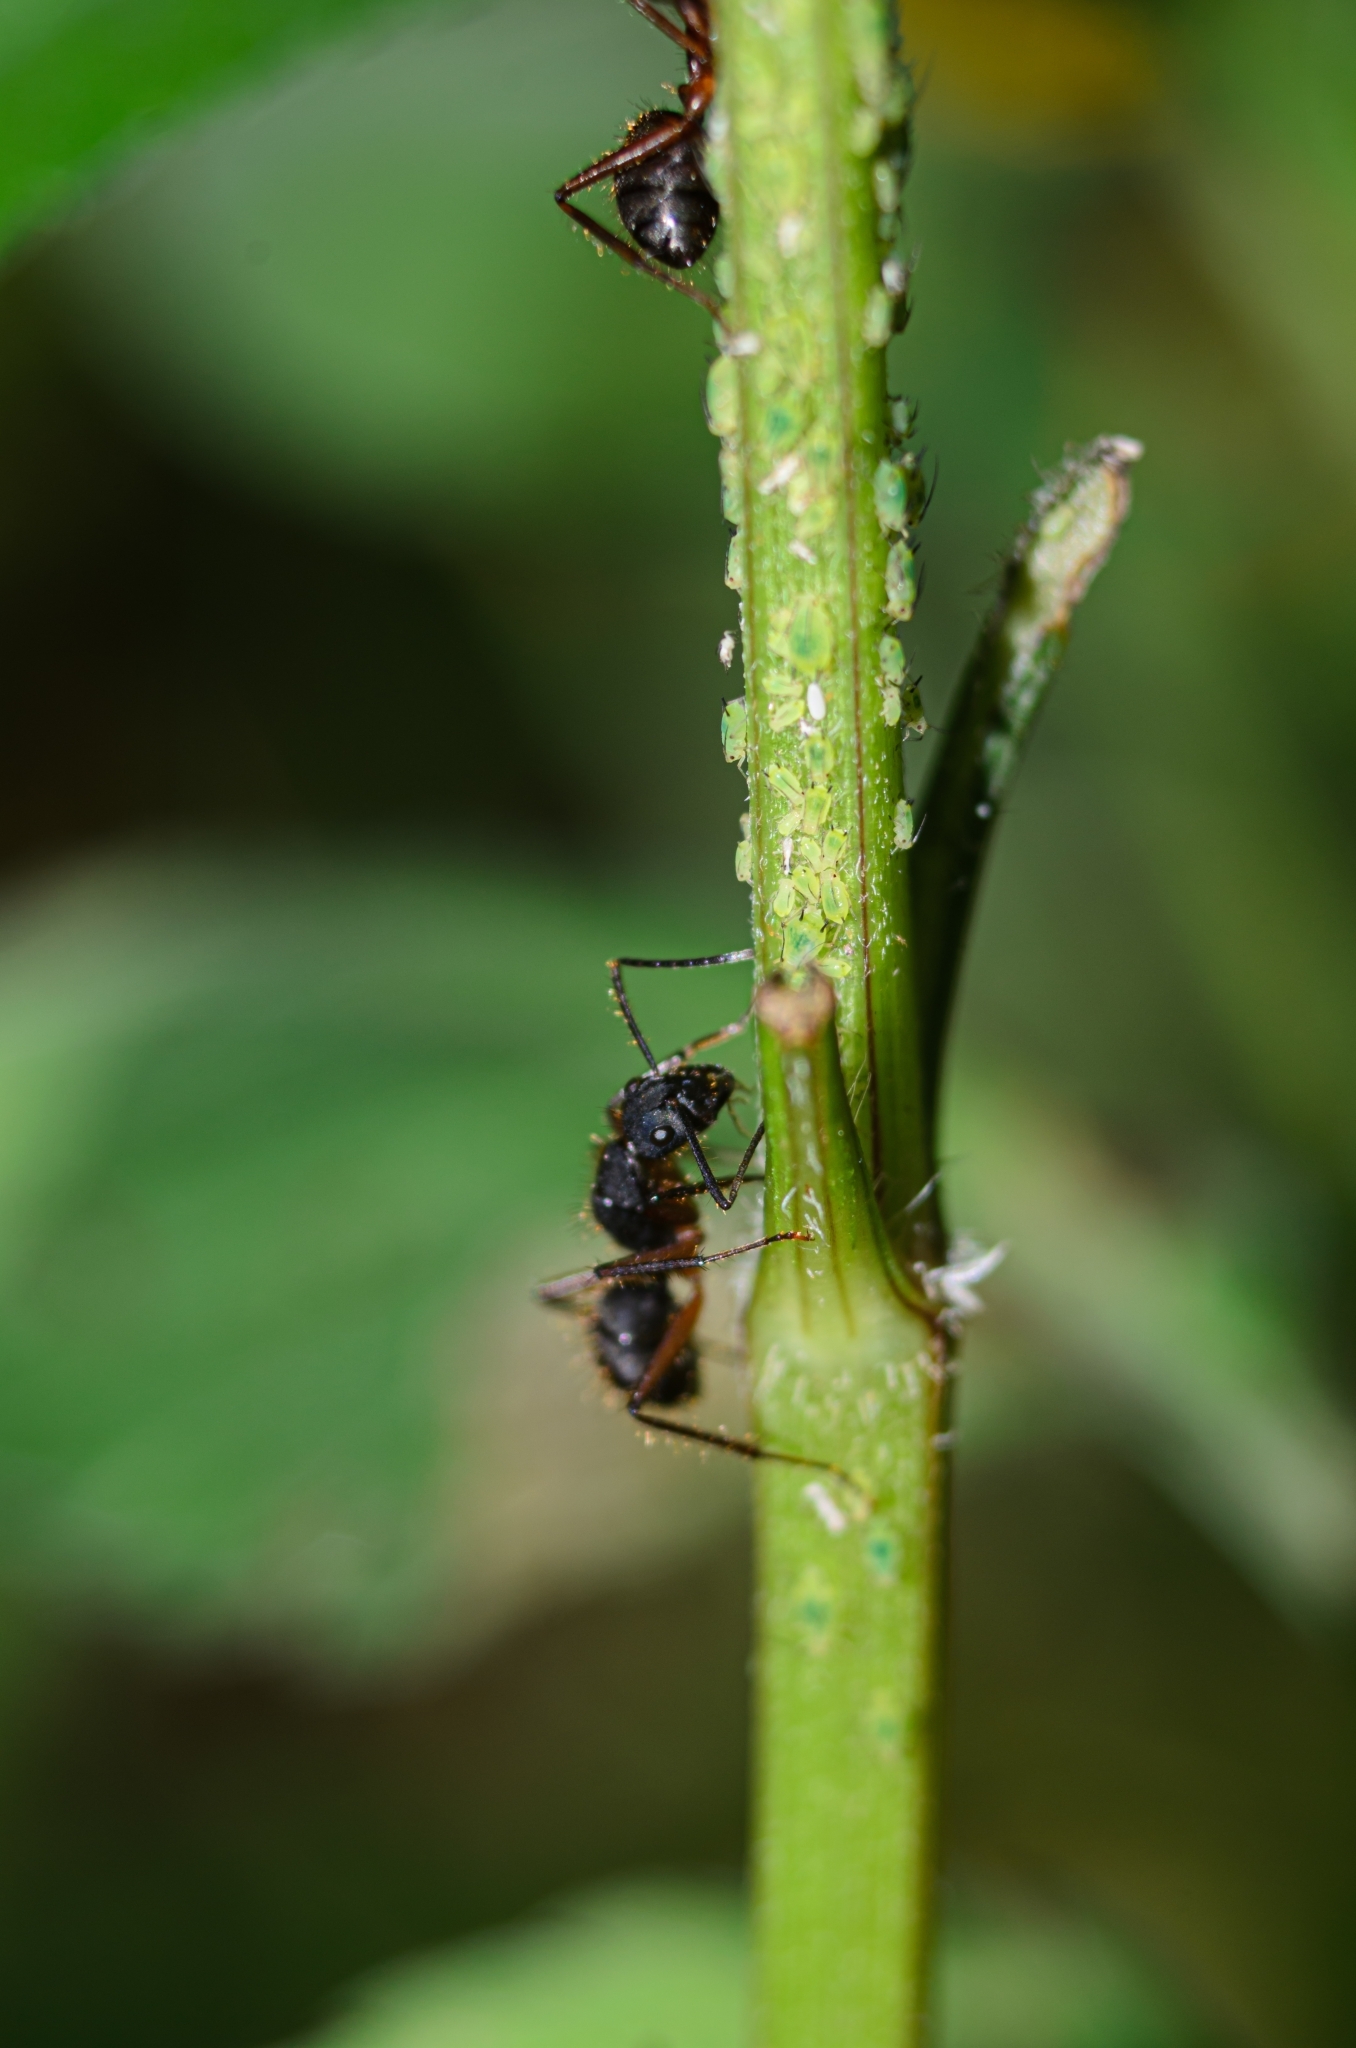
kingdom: Animalia
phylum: Arthropoda
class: Insecta
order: Hymenoptera
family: Formicidae
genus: Camponotus
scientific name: Camponotus rufipes
